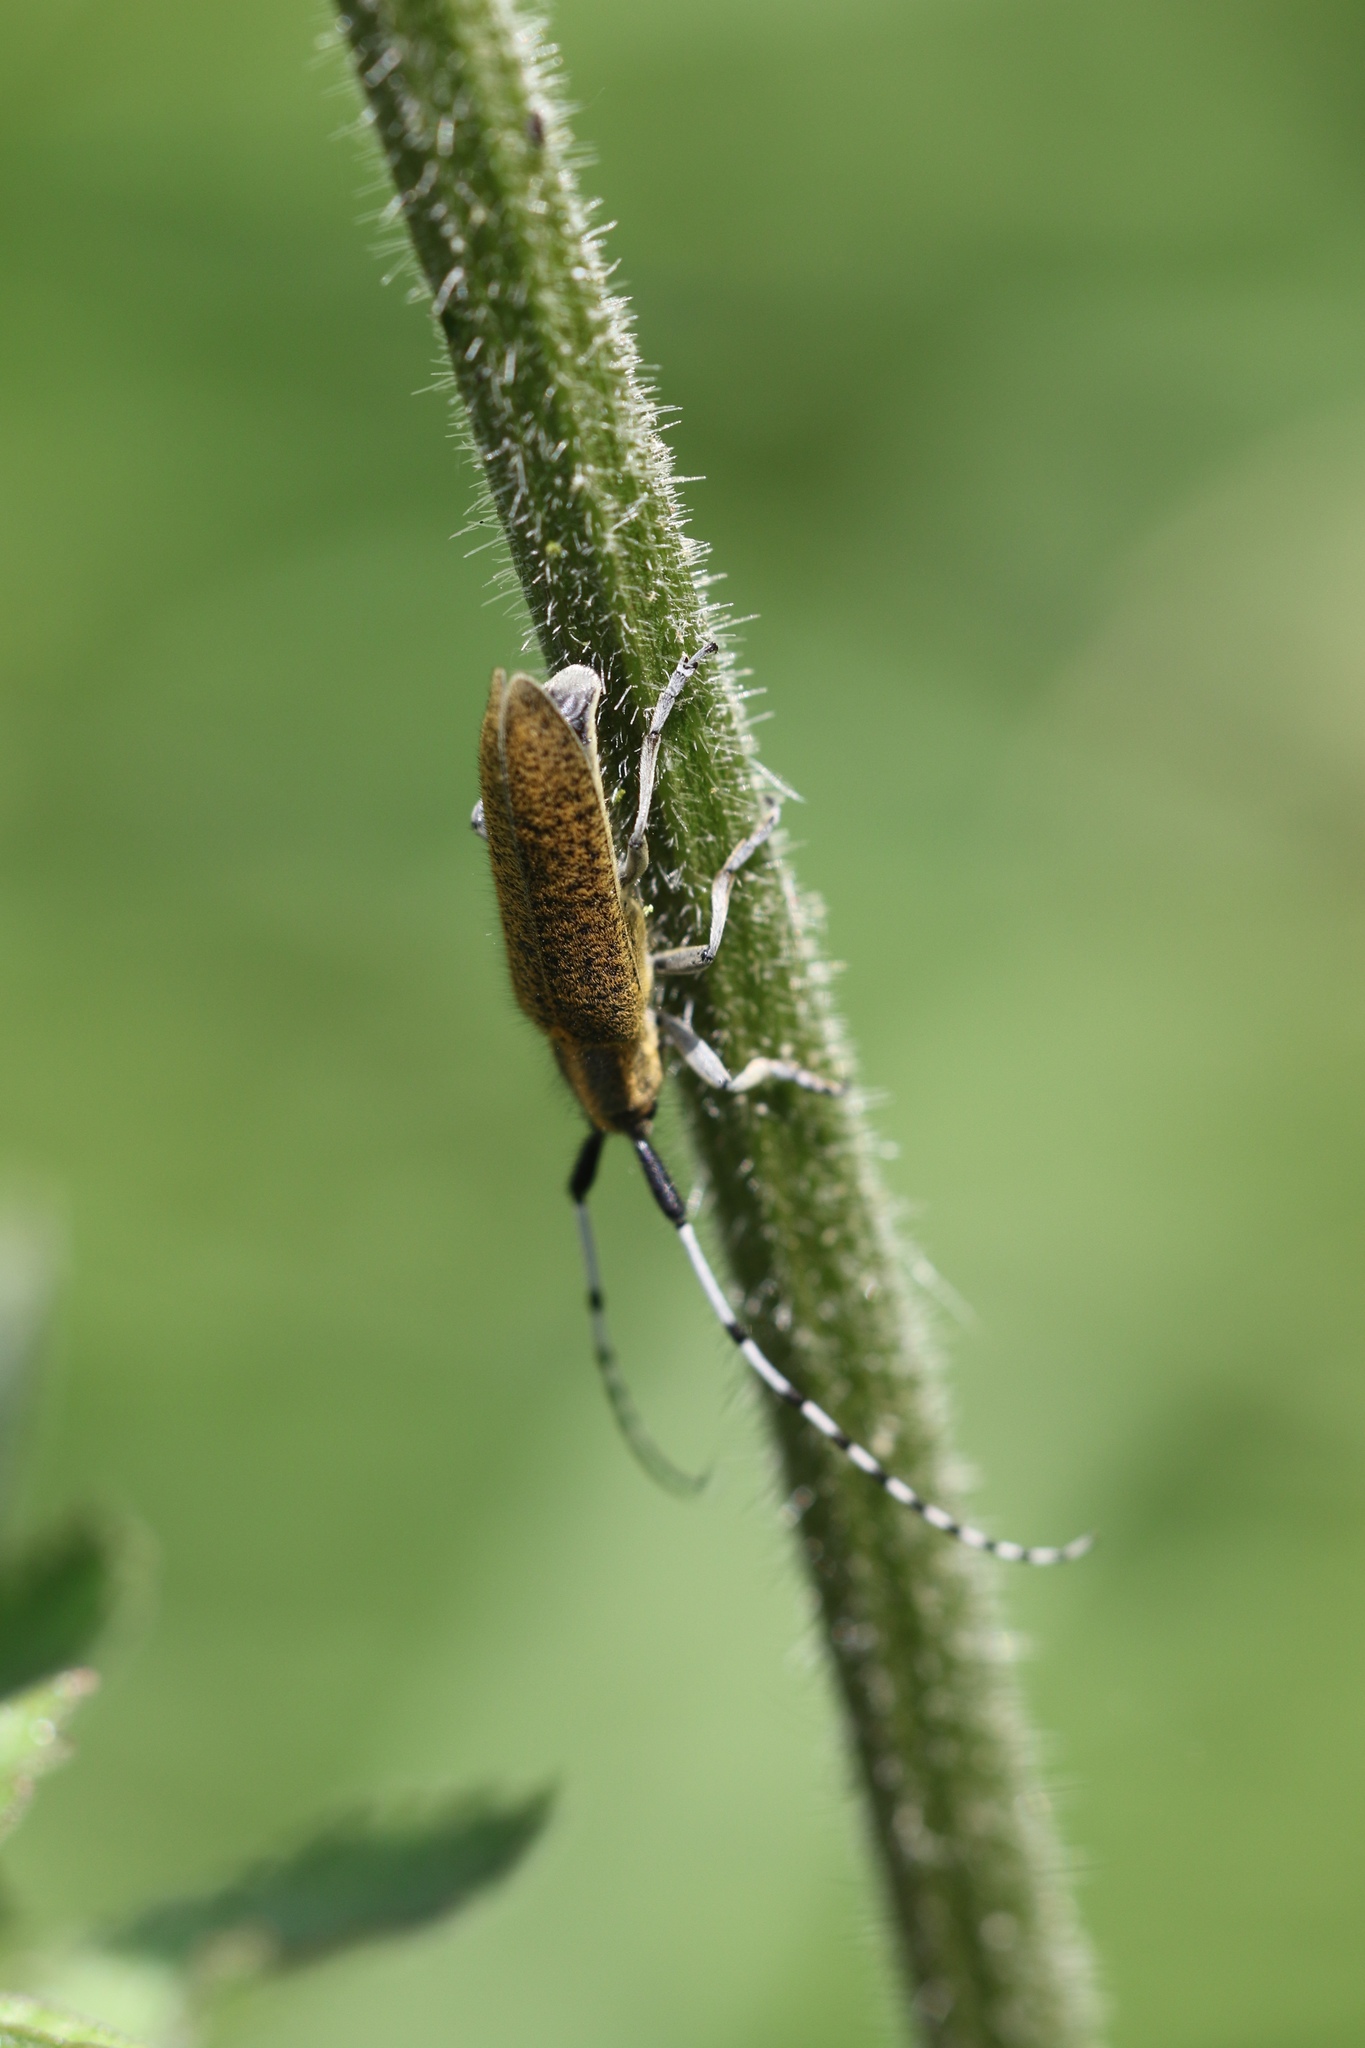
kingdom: Animalia
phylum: Arthropoda
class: Insecta
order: Coleoptera
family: Cerambycidae
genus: Agapanthia
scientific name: Agapanthia villosoviridescens
